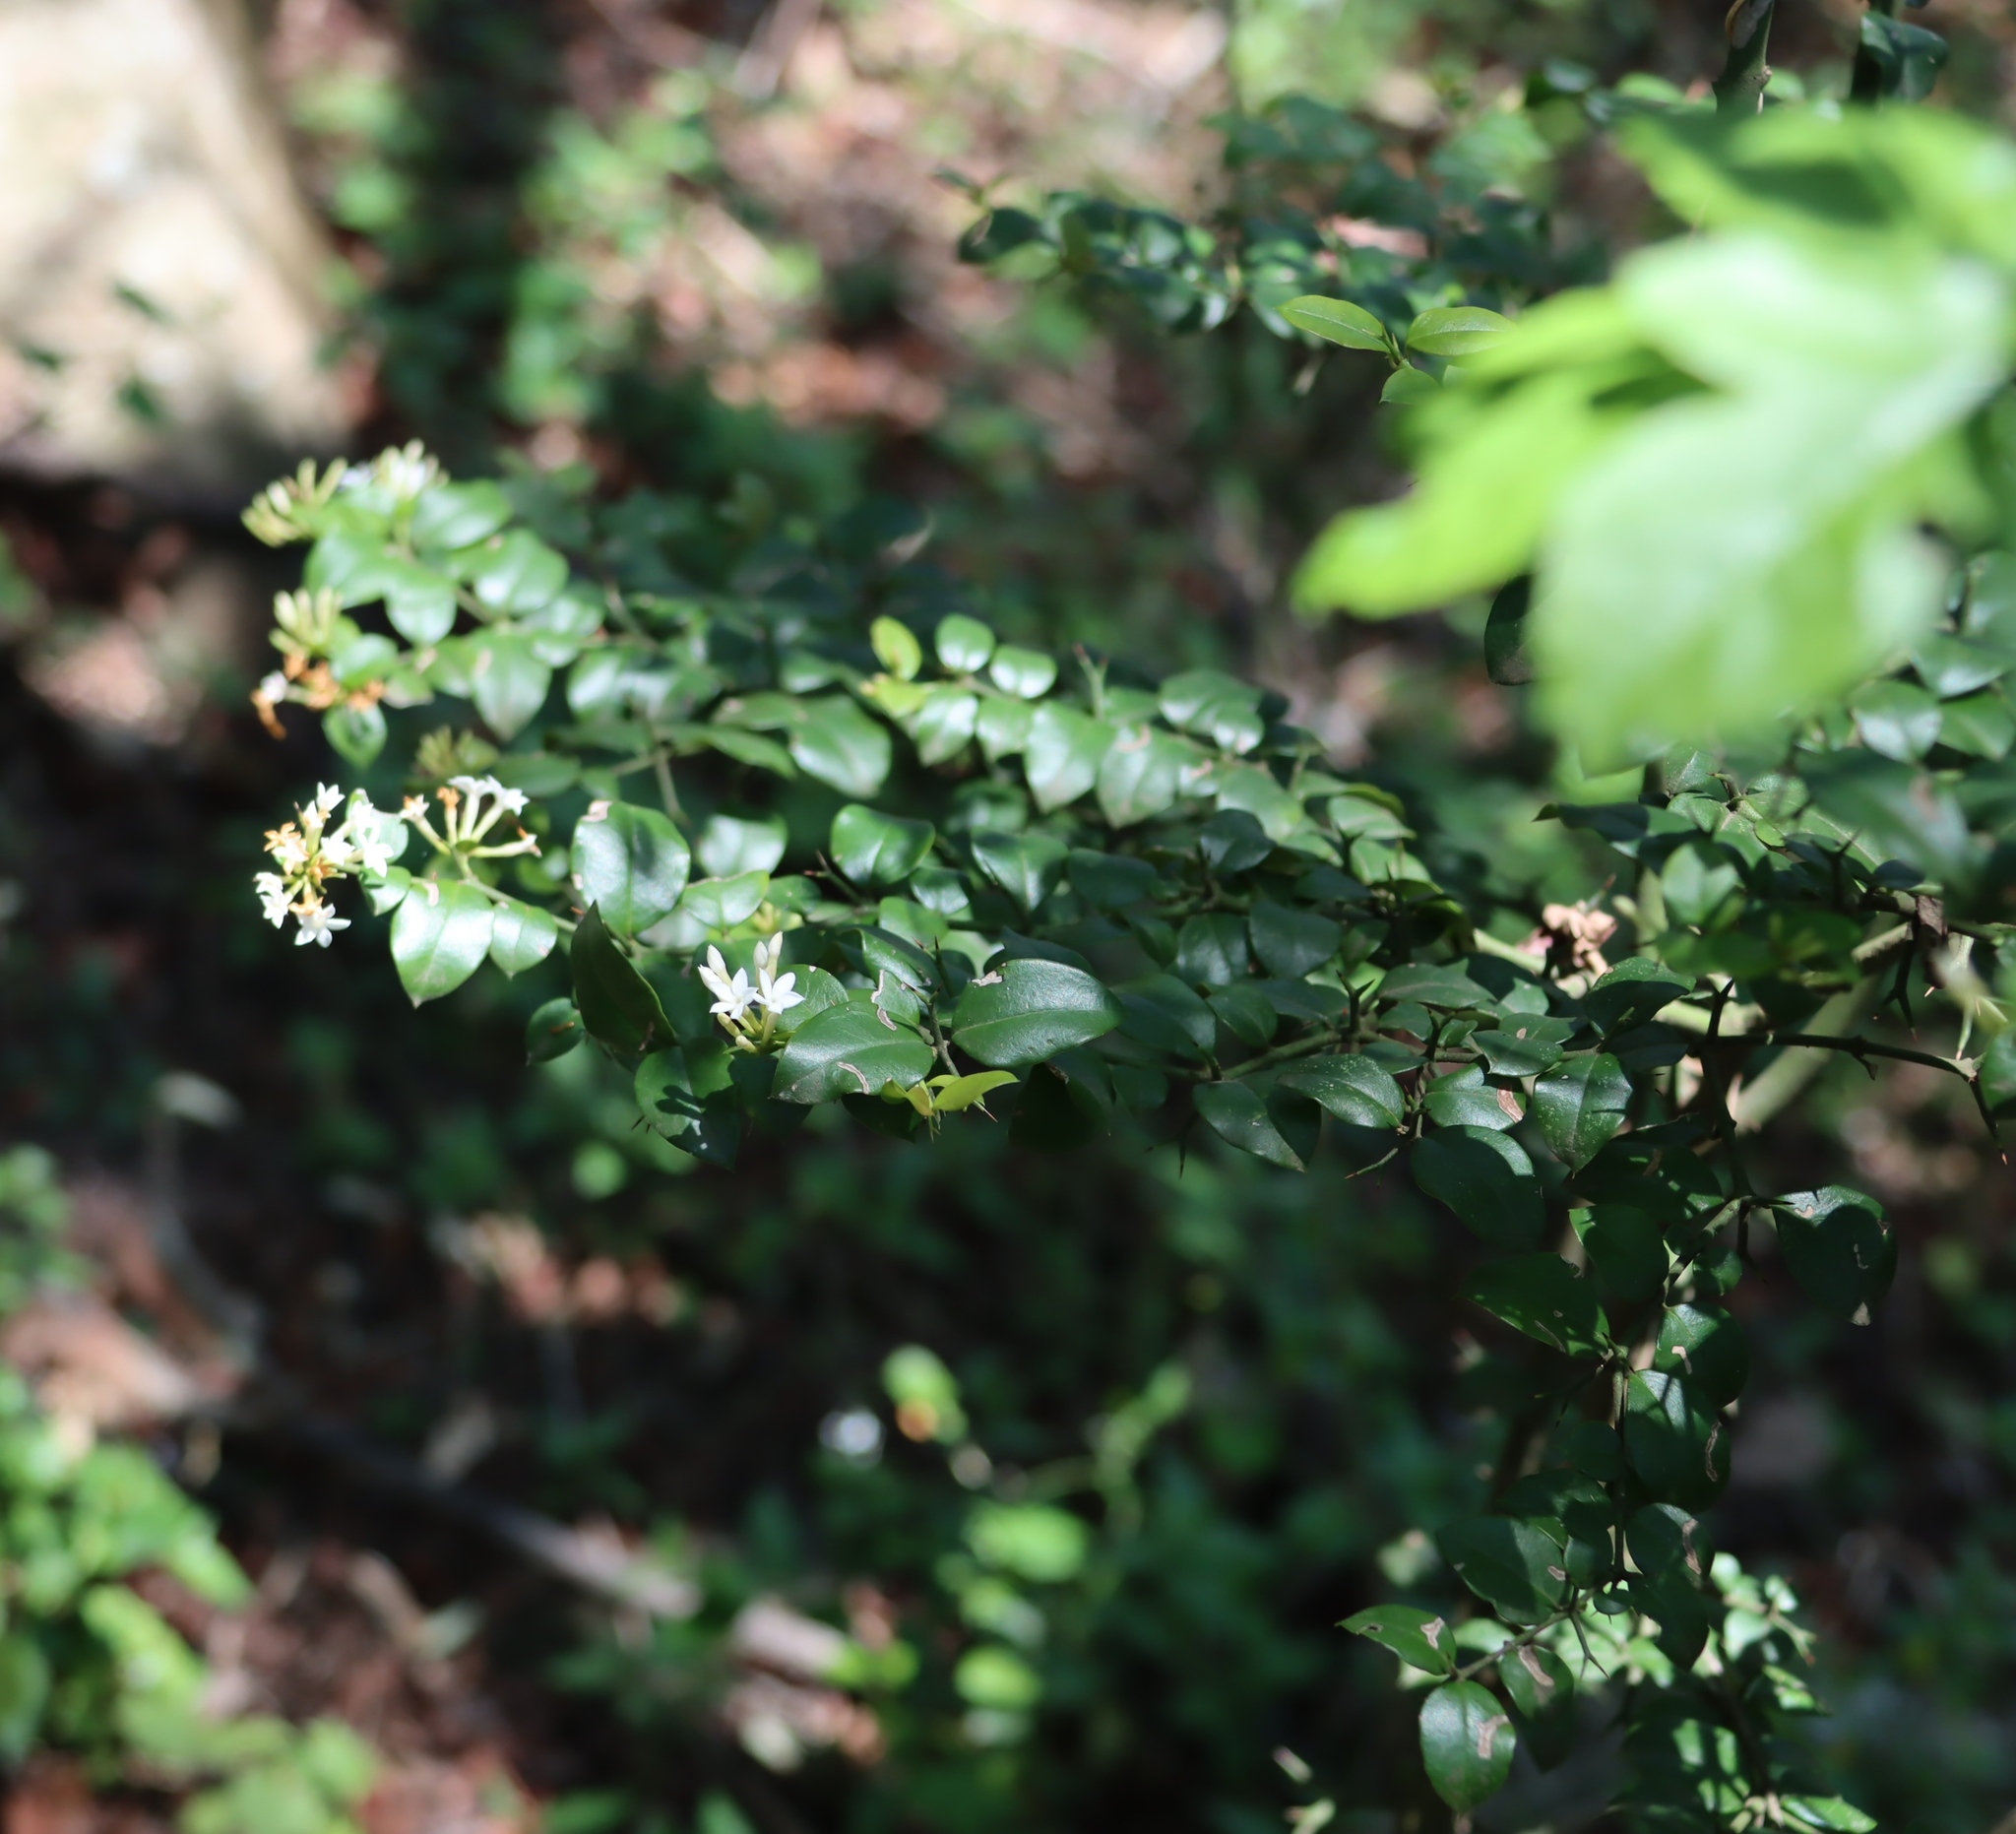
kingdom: Plantae
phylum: Tracheophyta
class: Magnoliopsida
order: Gentianales
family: Apocynaceae
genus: Carissa
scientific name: Carissa bispinosa
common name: Forest num-num
